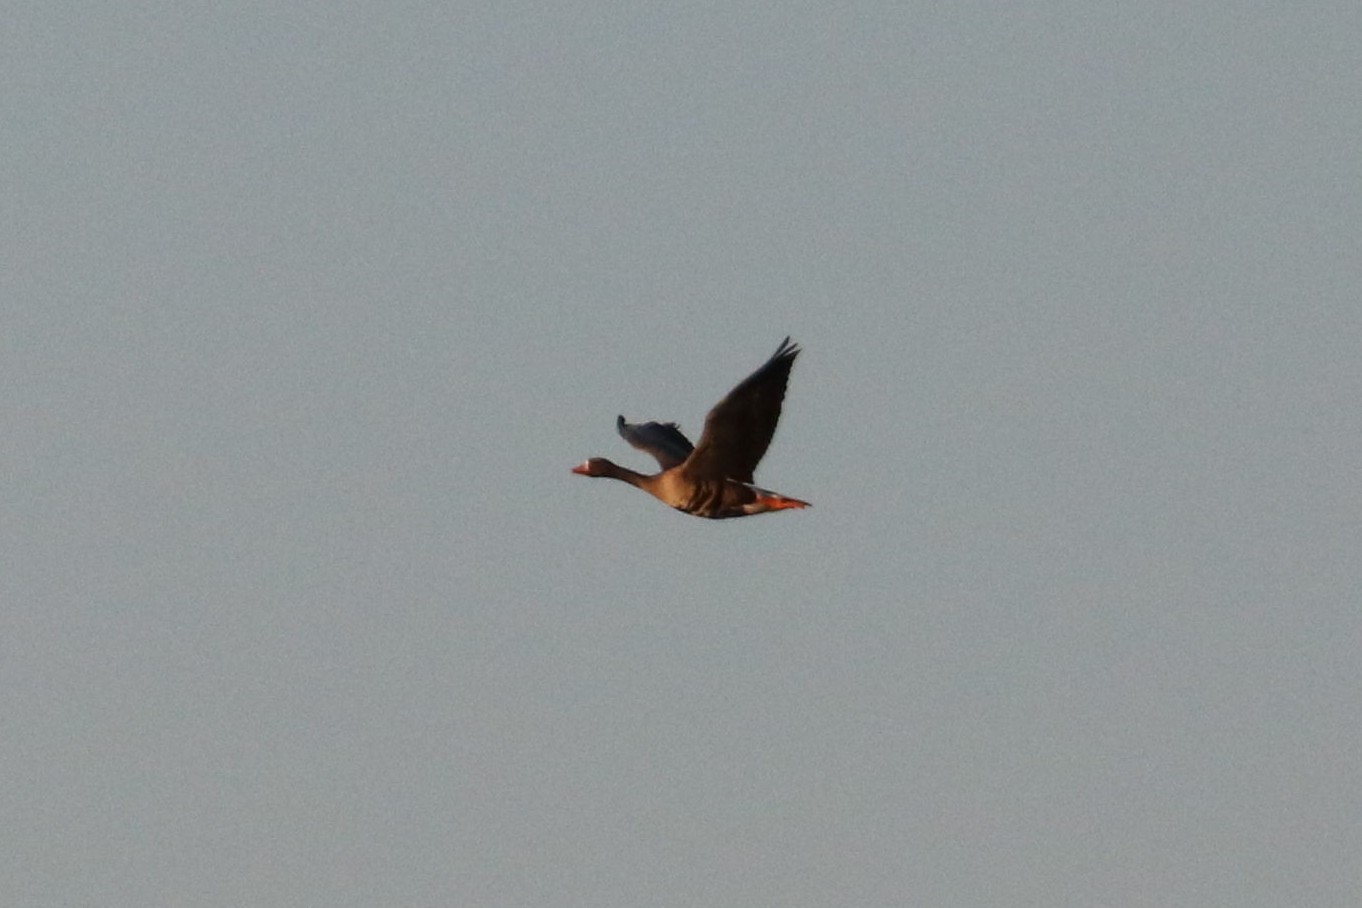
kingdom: Animalia
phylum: Chordata
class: Aves
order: Anseriformes
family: Anatidae
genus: Anser
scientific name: Anser albifrons
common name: Greater white-fronted goose
